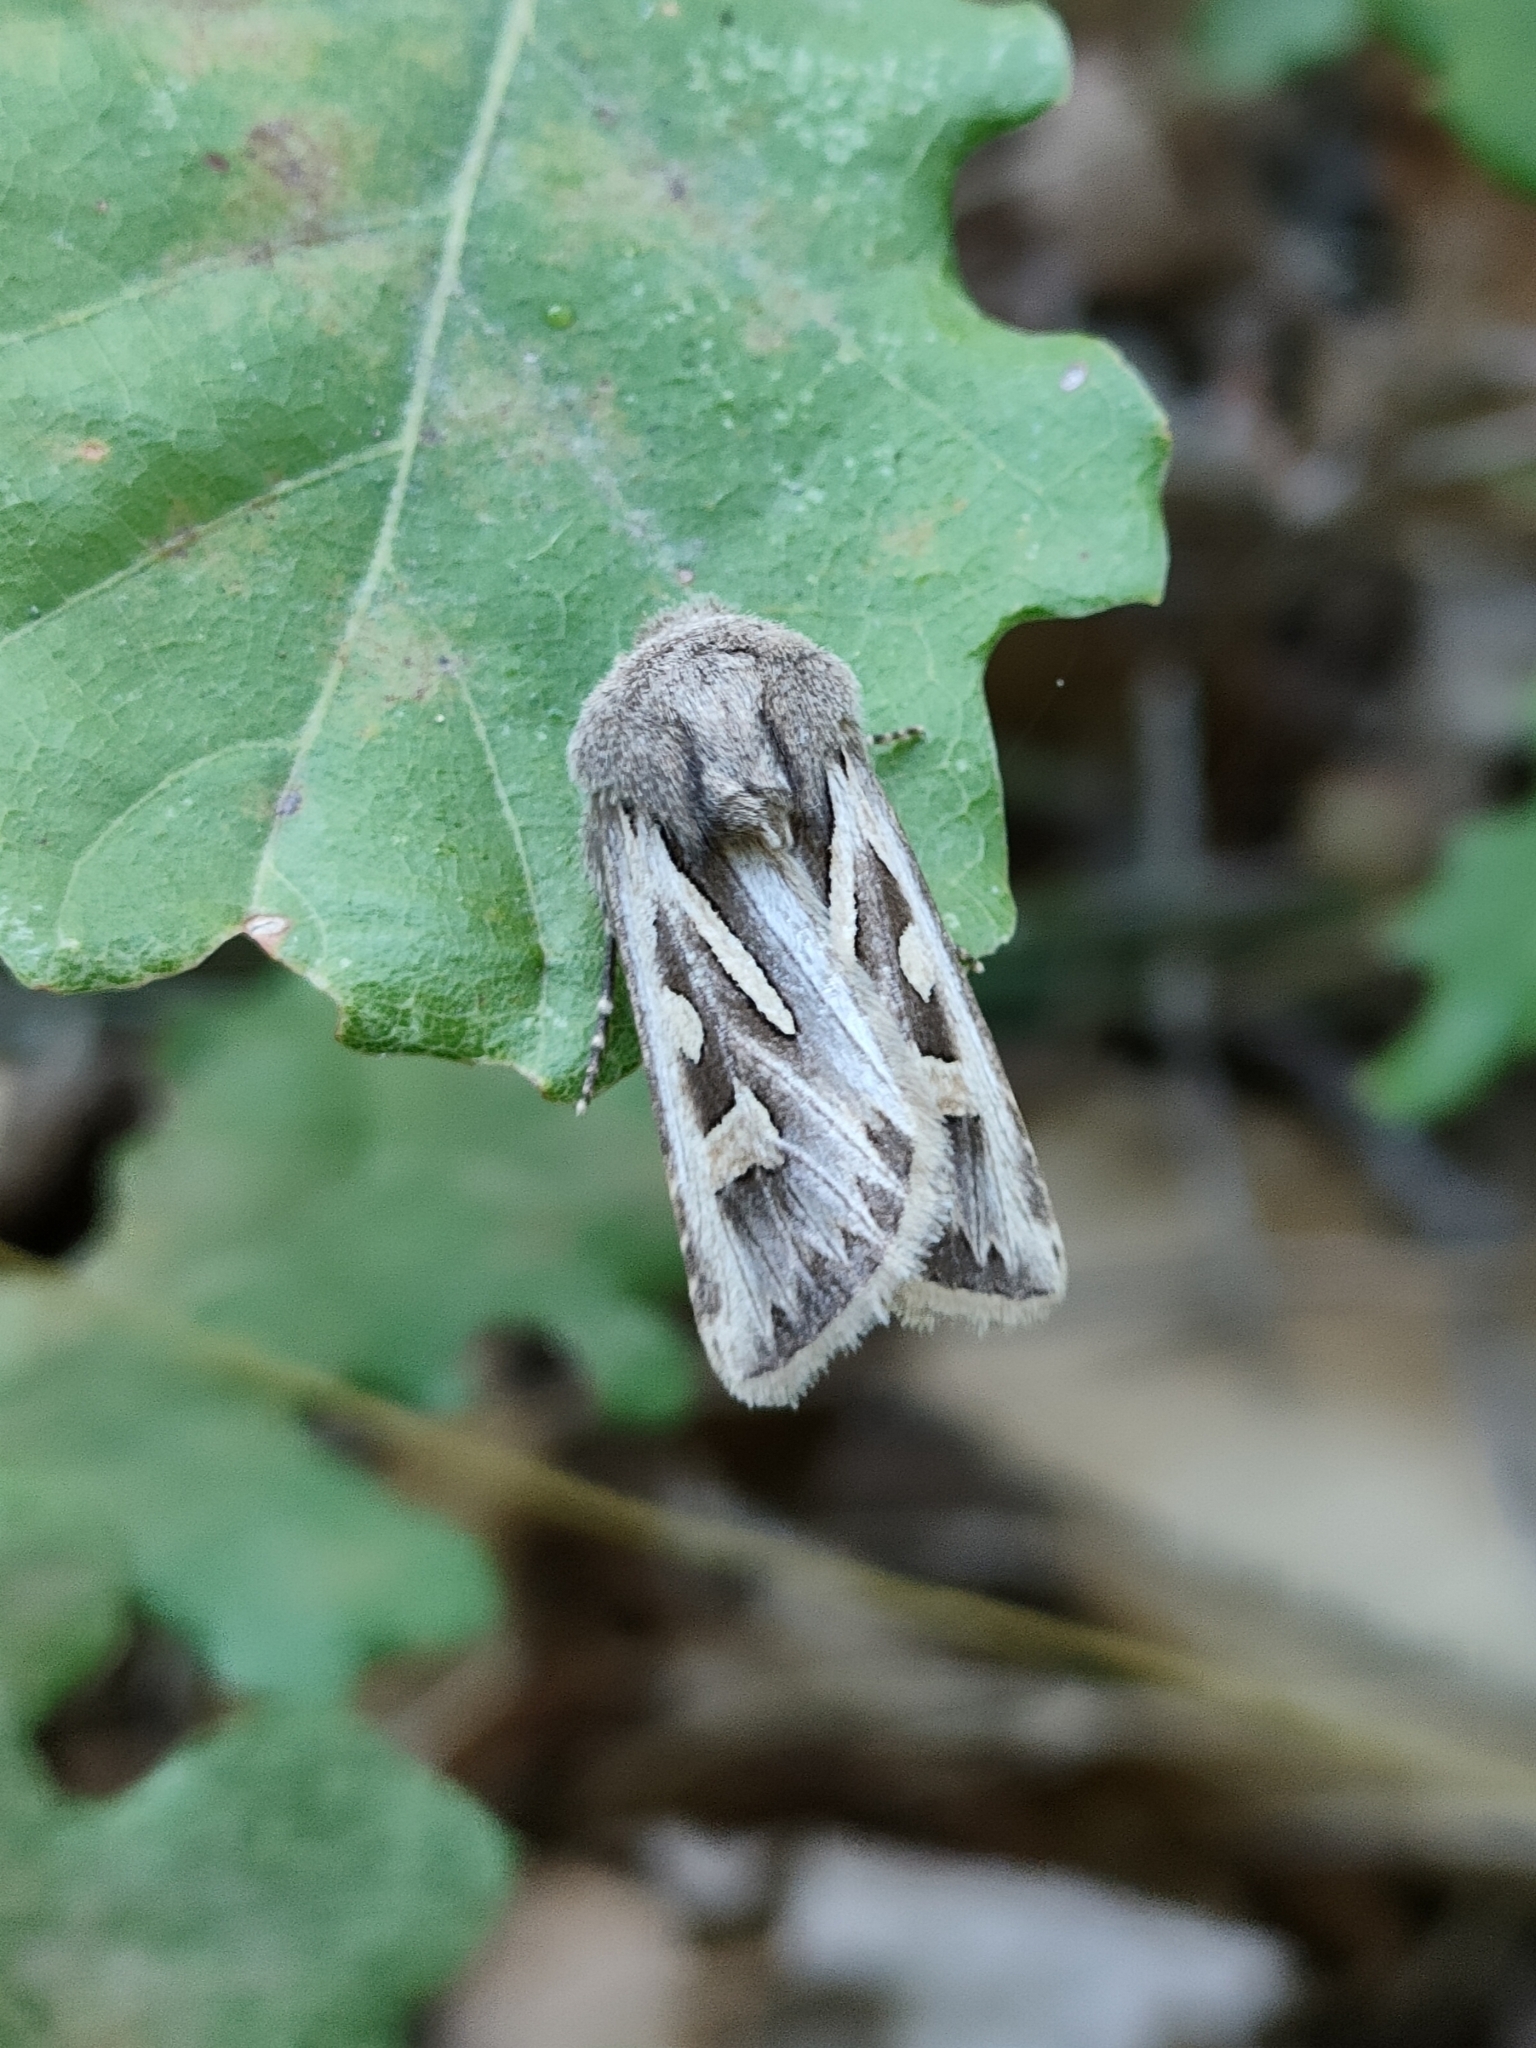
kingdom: Animalia
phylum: Arthropoda
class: Insecta
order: Lepidoptera
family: Noctuidae
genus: Eucoptocnemis
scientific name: Eucoptocnemis optabilis
